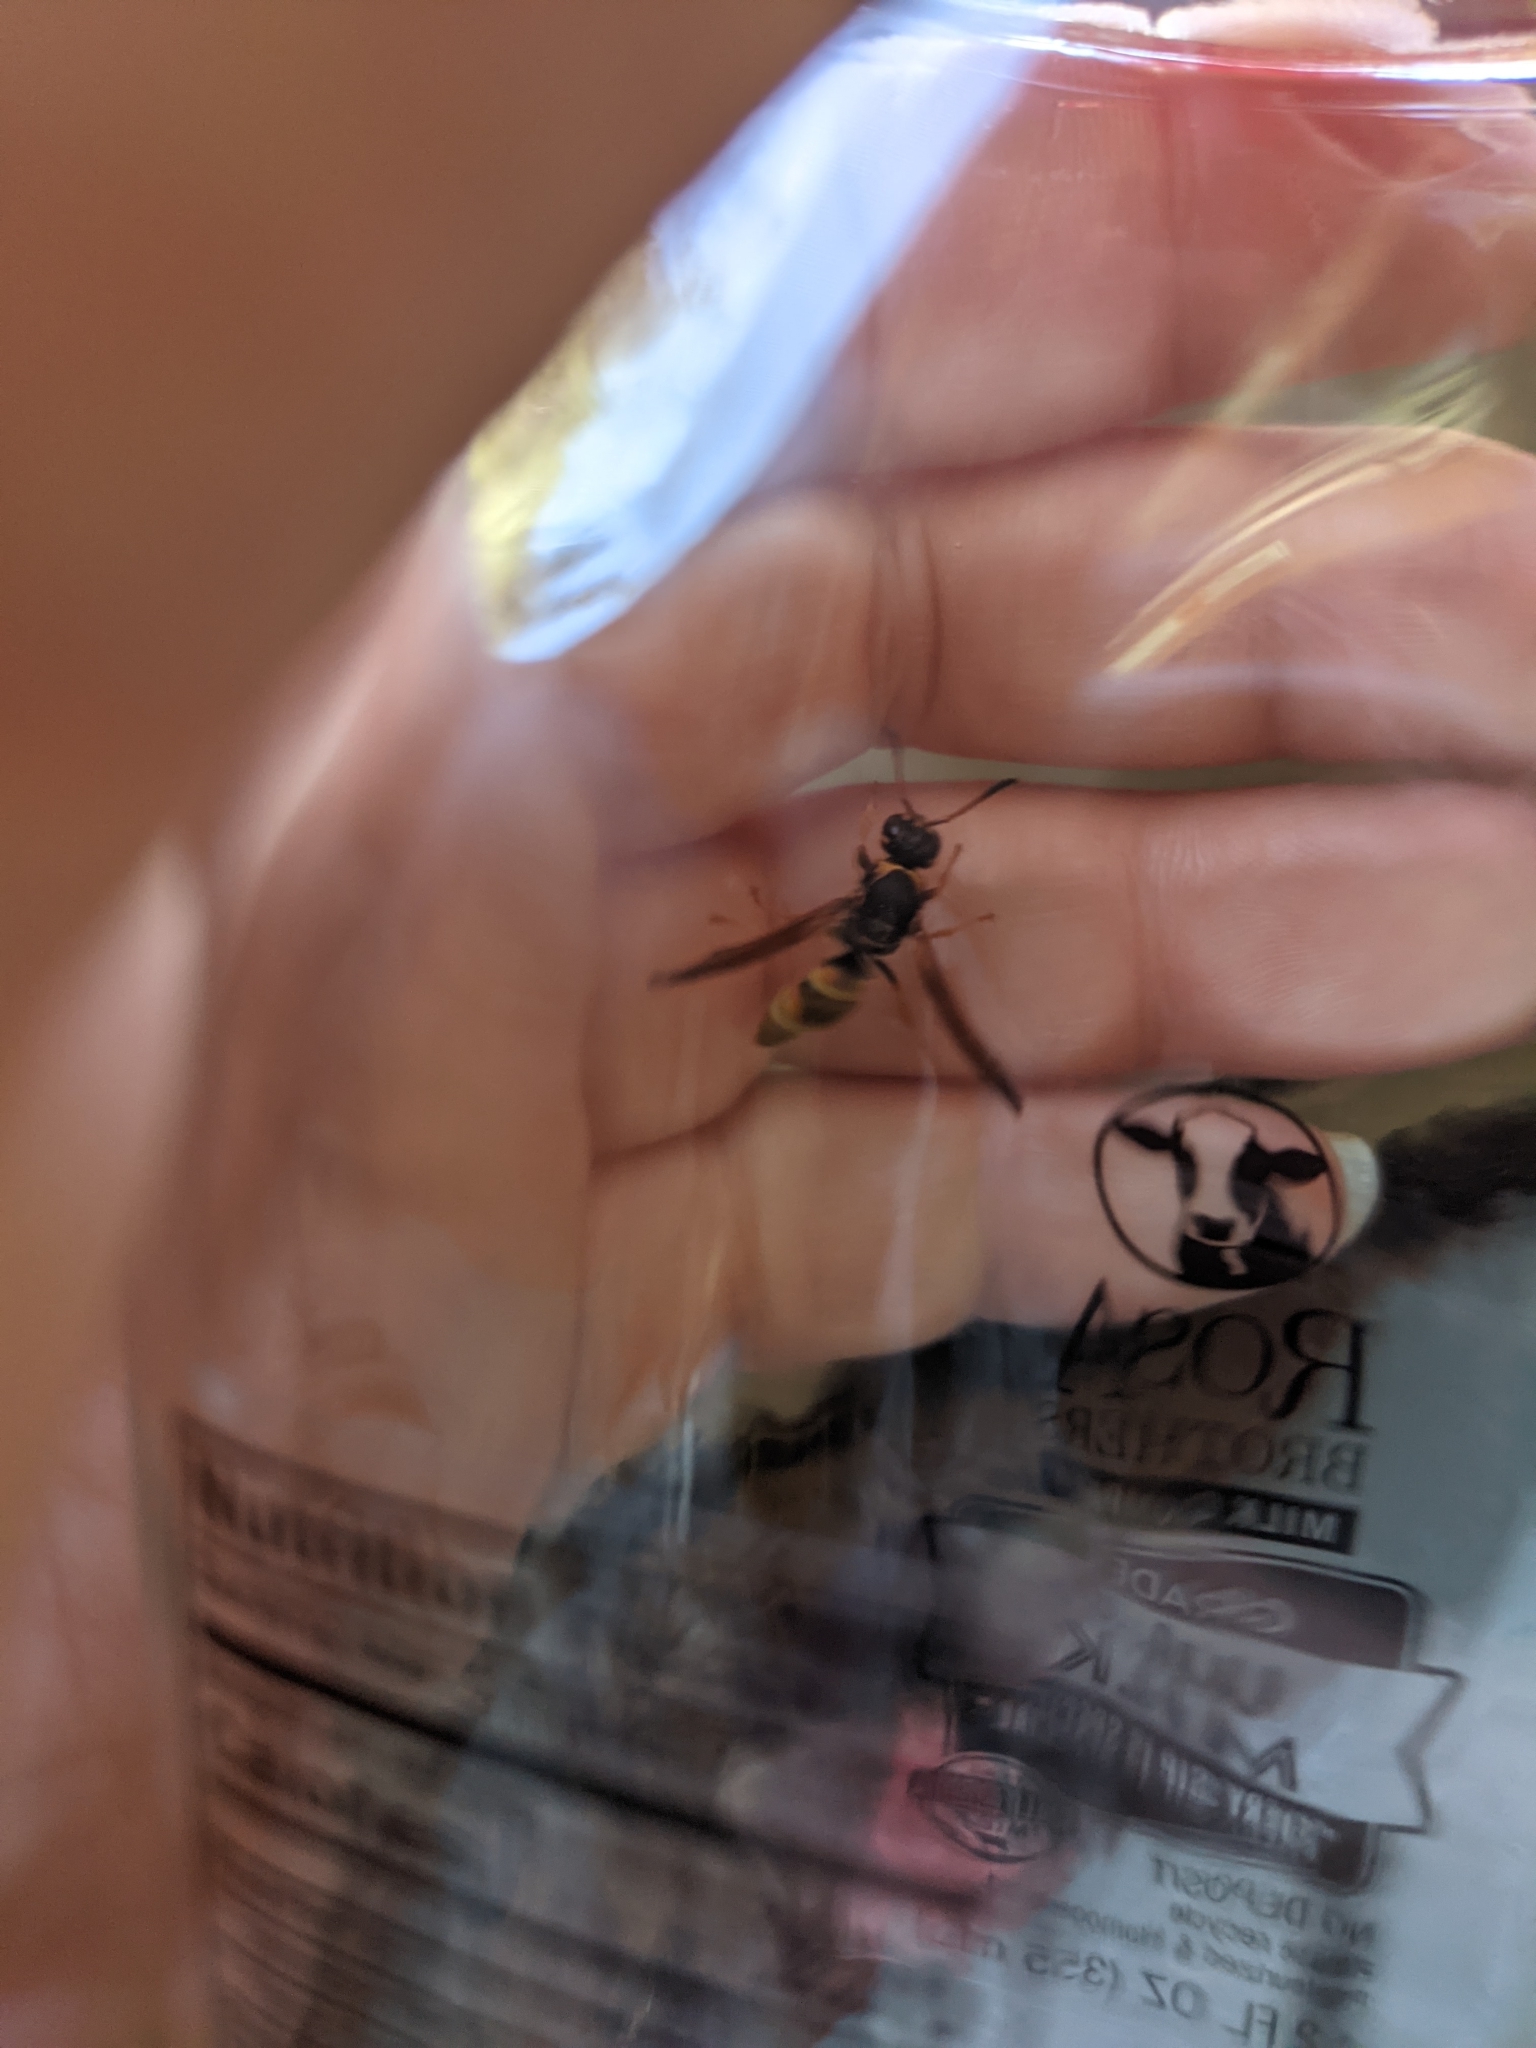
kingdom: Animalia
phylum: Arthropoda
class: Insecta
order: Hymenoptera
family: Eumenidae
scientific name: Eumenidae
